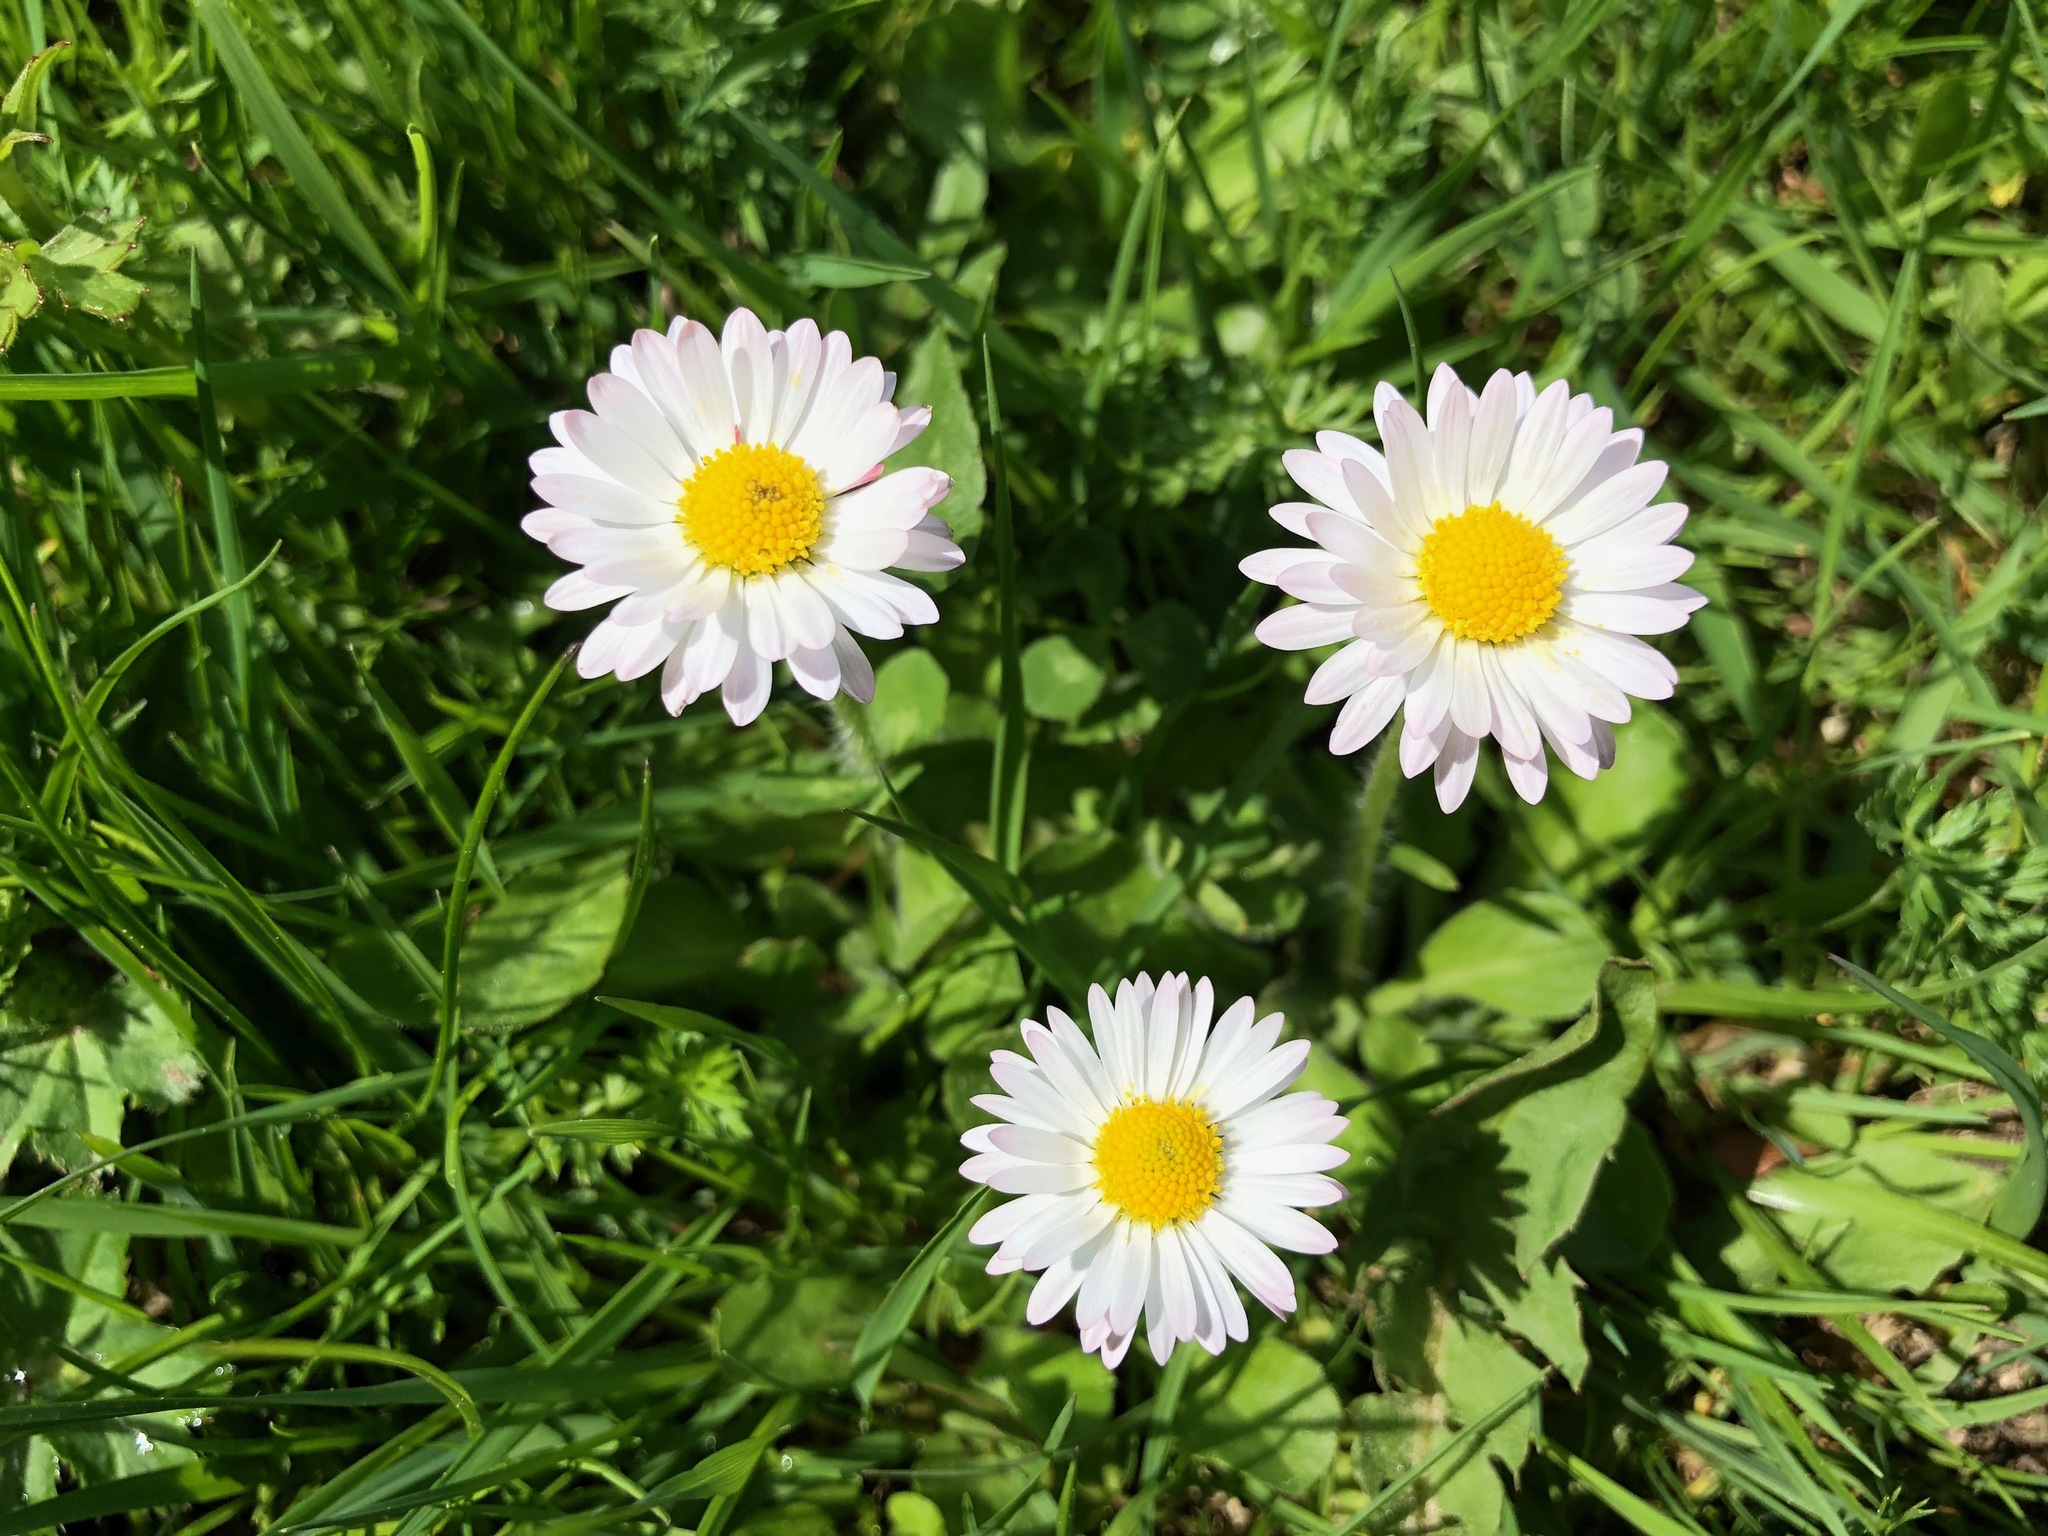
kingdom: Plantae
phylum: Tracheophyta
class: Magnoliopsida
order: Asterales
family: Asteraceae
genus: Bellis
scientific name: Bellis perennis
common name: Lawndaisy
